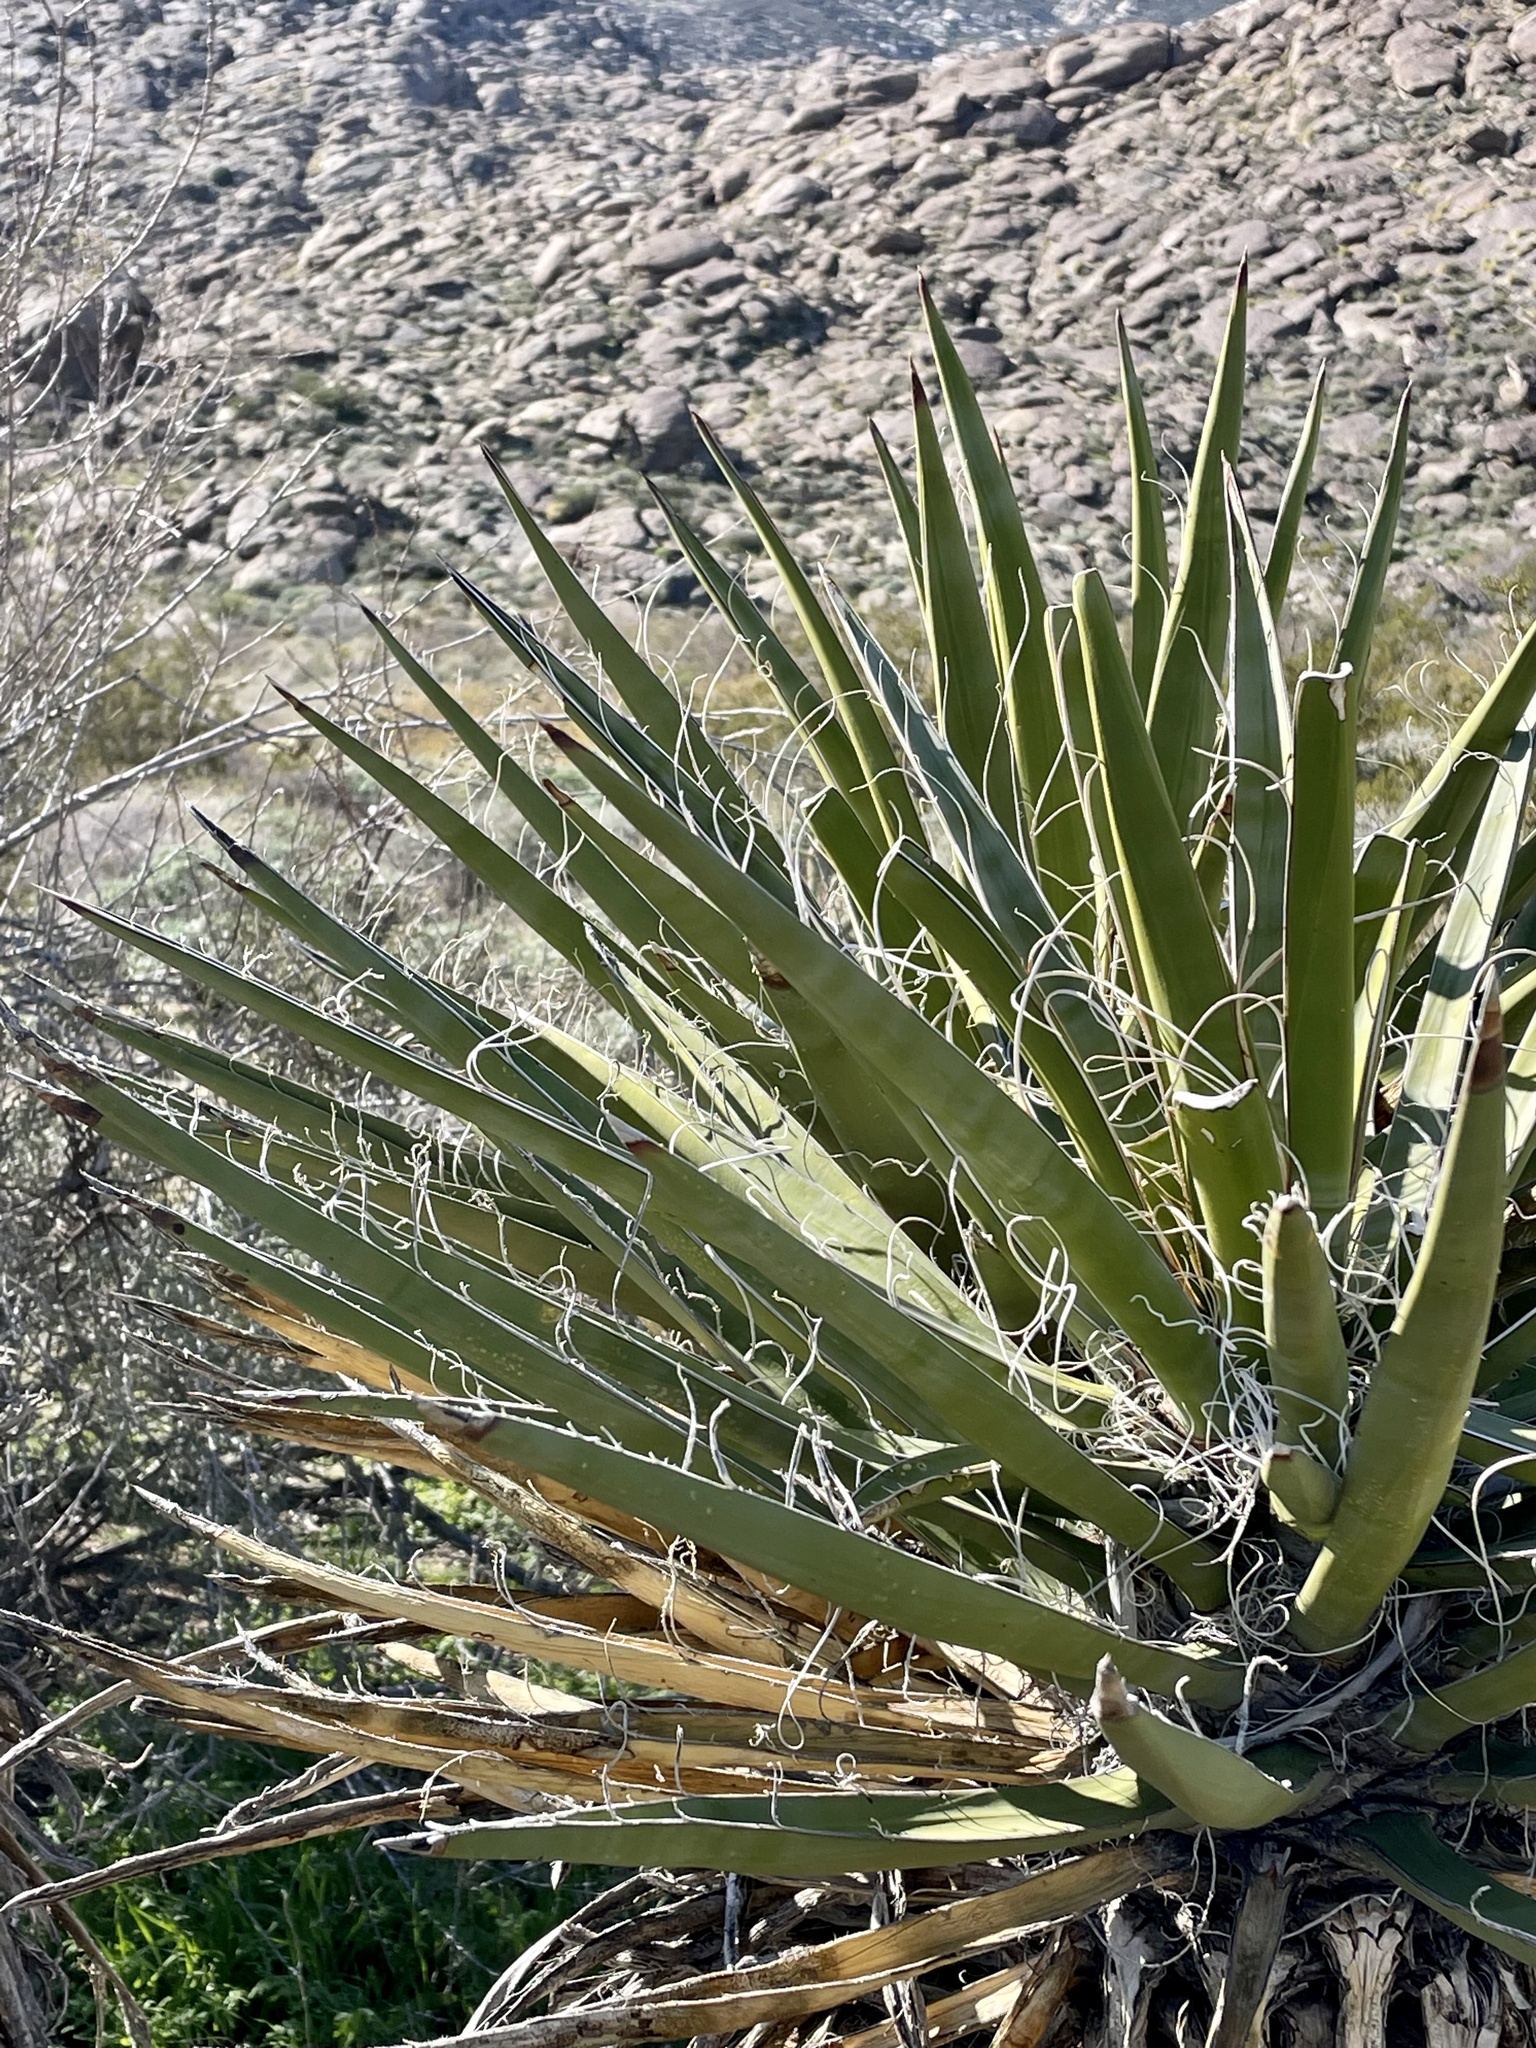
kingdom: Plantae
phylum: Tracheophyta
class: Liliopsida
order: Asparagales
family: Asparagaceae
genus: Yucca
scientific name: Yucca schidigera
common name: Mojave yucca
